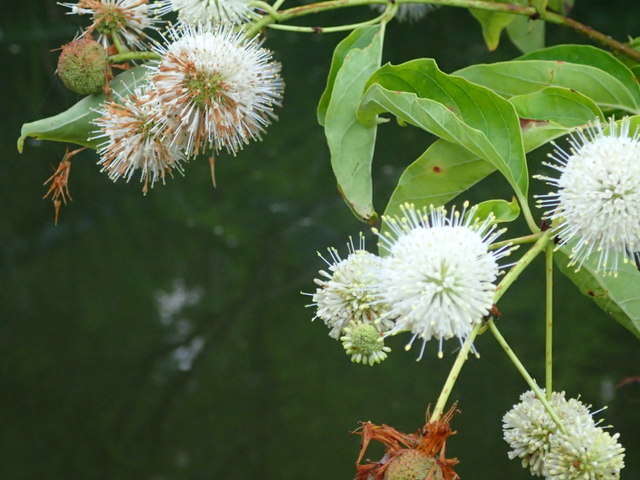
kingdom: Plantae
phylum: Tracheophyta
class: Magnoliopsida
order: Gentianales
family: Rubiaceae
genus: Cephalanthus
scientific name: Cephalanthus occidentalis
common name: Button-willow
